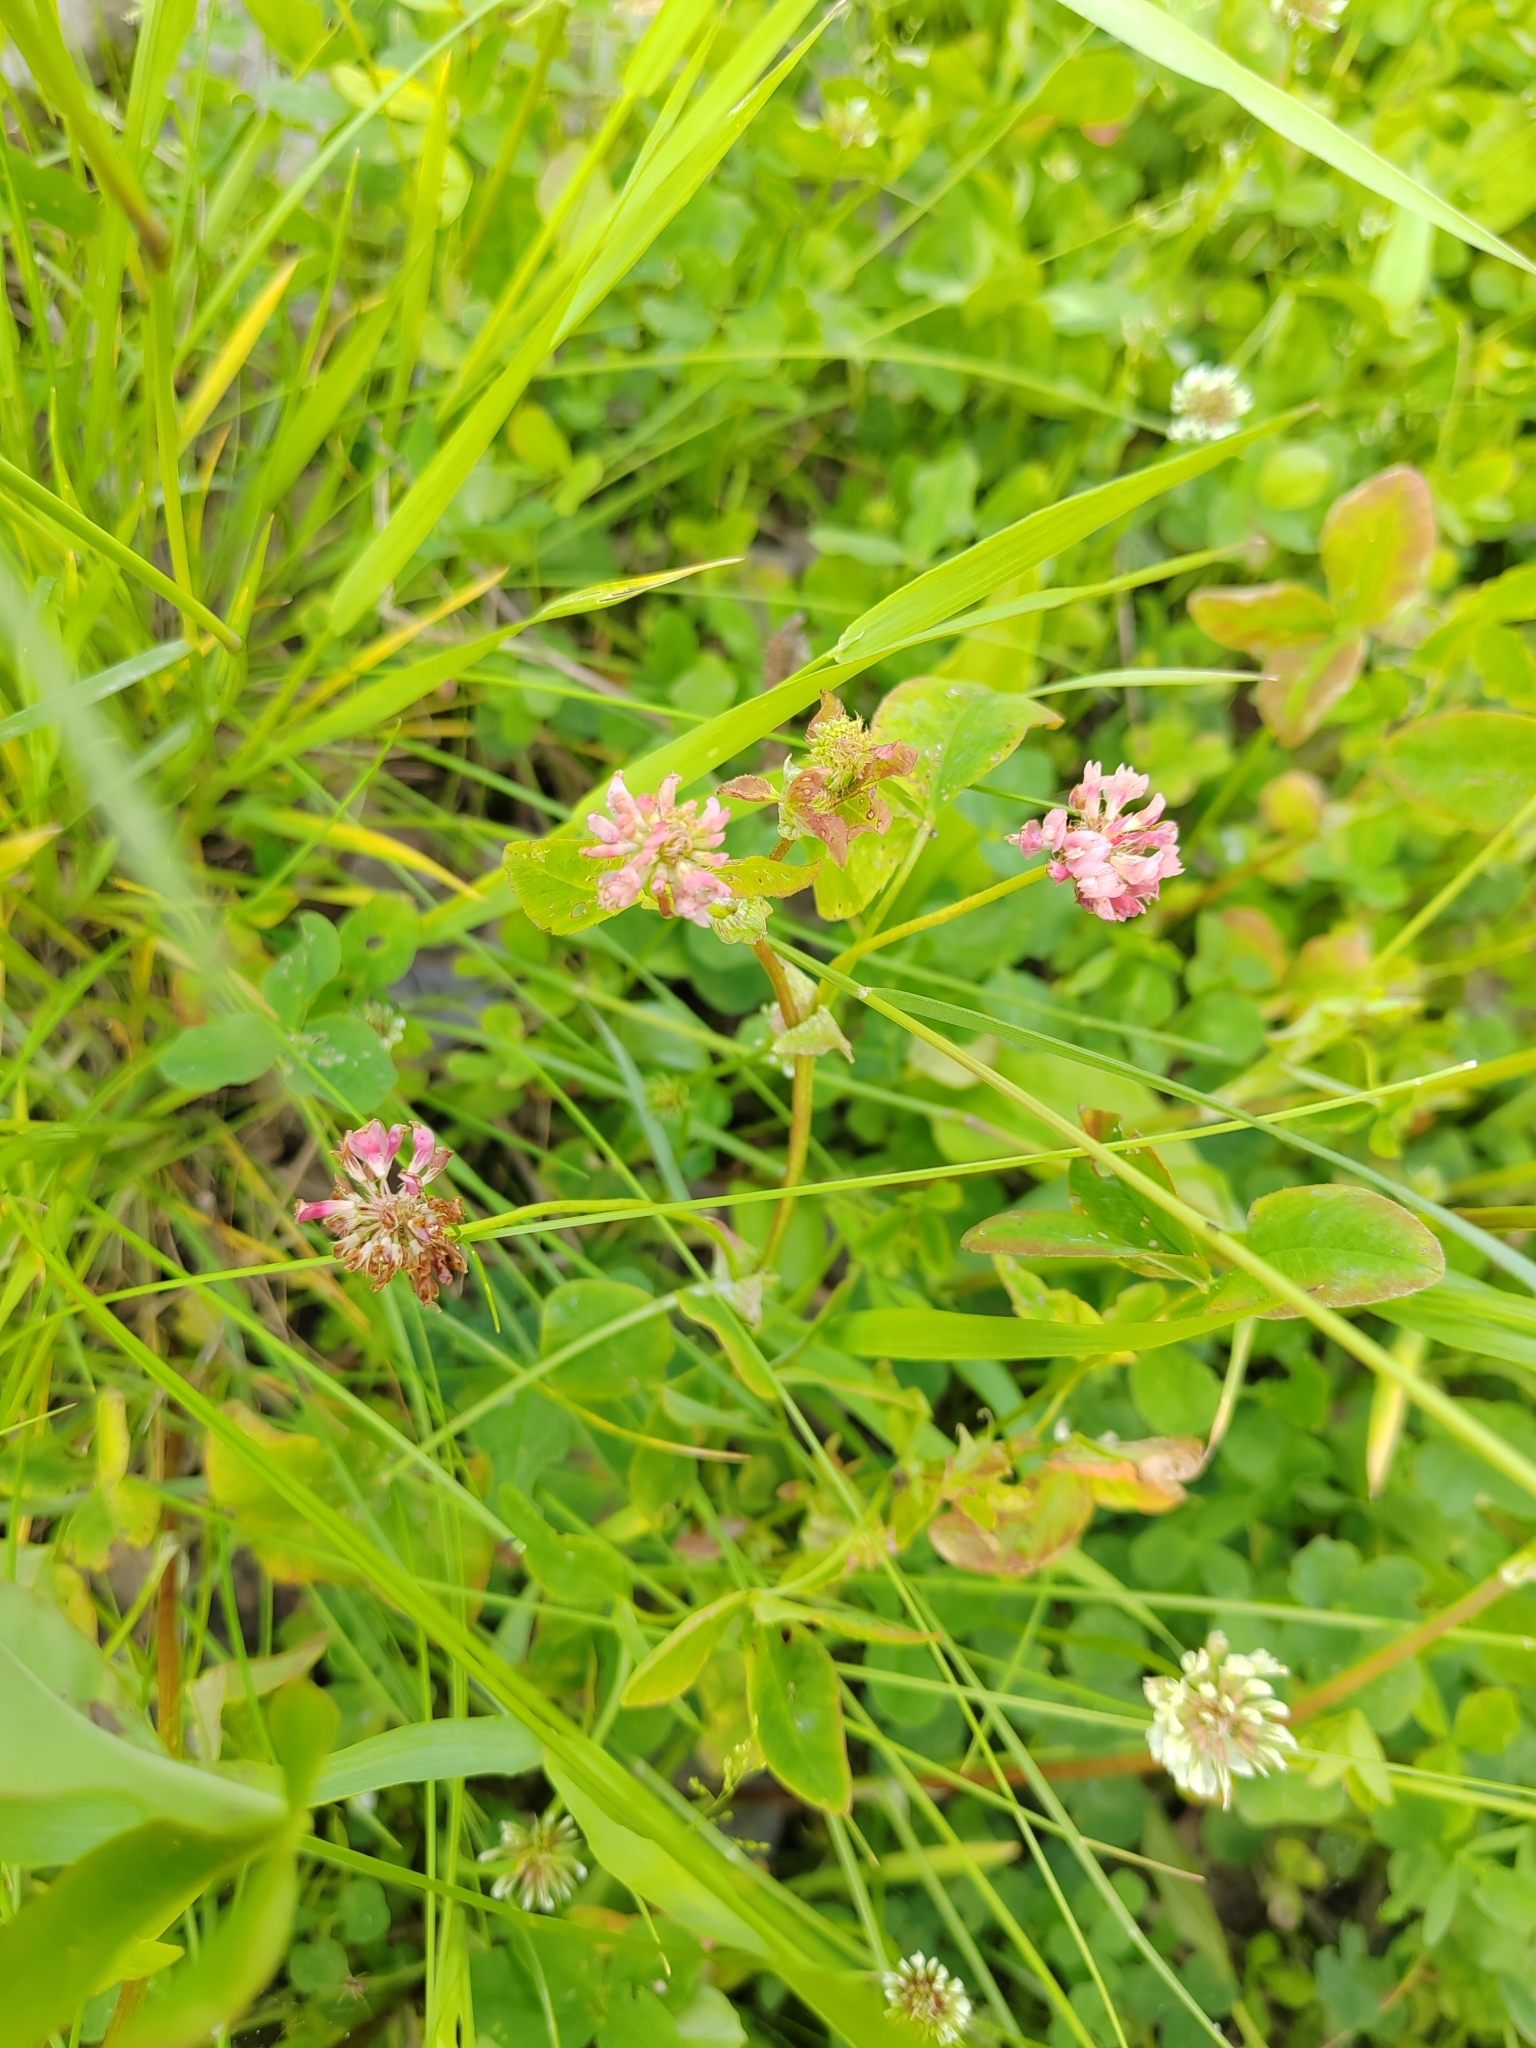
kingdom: Plantae
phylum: Tracheophyta
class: Magnoliopsida
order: Fabales
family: Fabaceae
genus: Trifolium
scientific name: Trifolium hybridum
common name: Alsike clover
